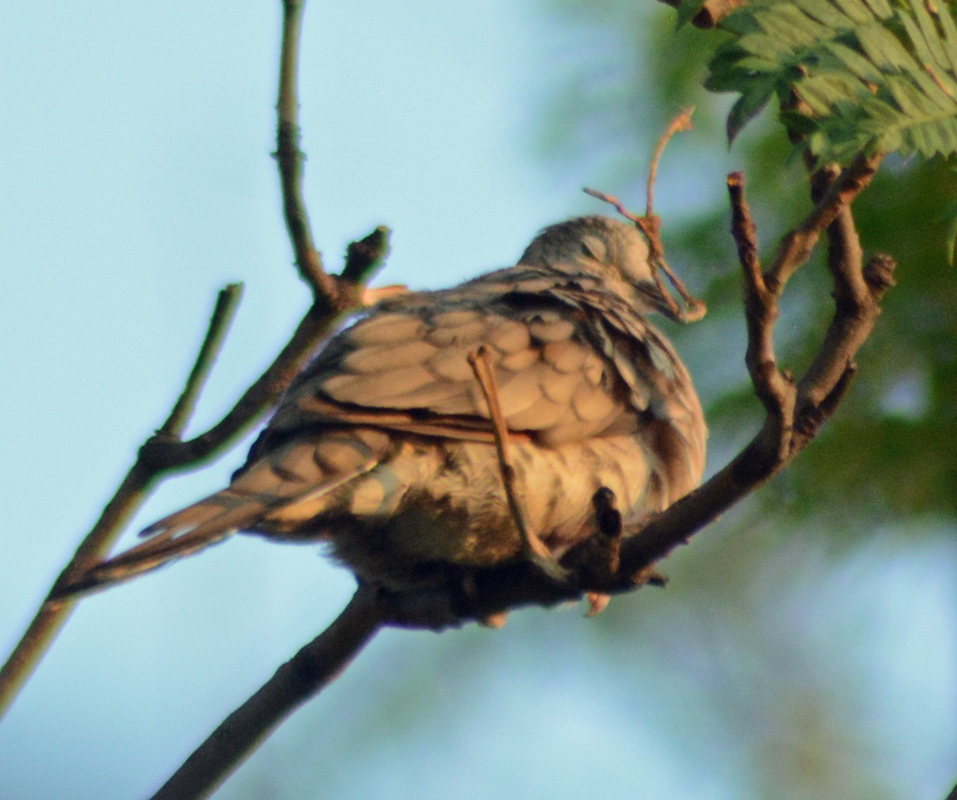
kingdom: Animalia
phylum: Chordata
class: Aves
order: Columbiformes
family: Columbidae
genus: Columbina
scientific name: Columbina inca
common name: Inca dove
